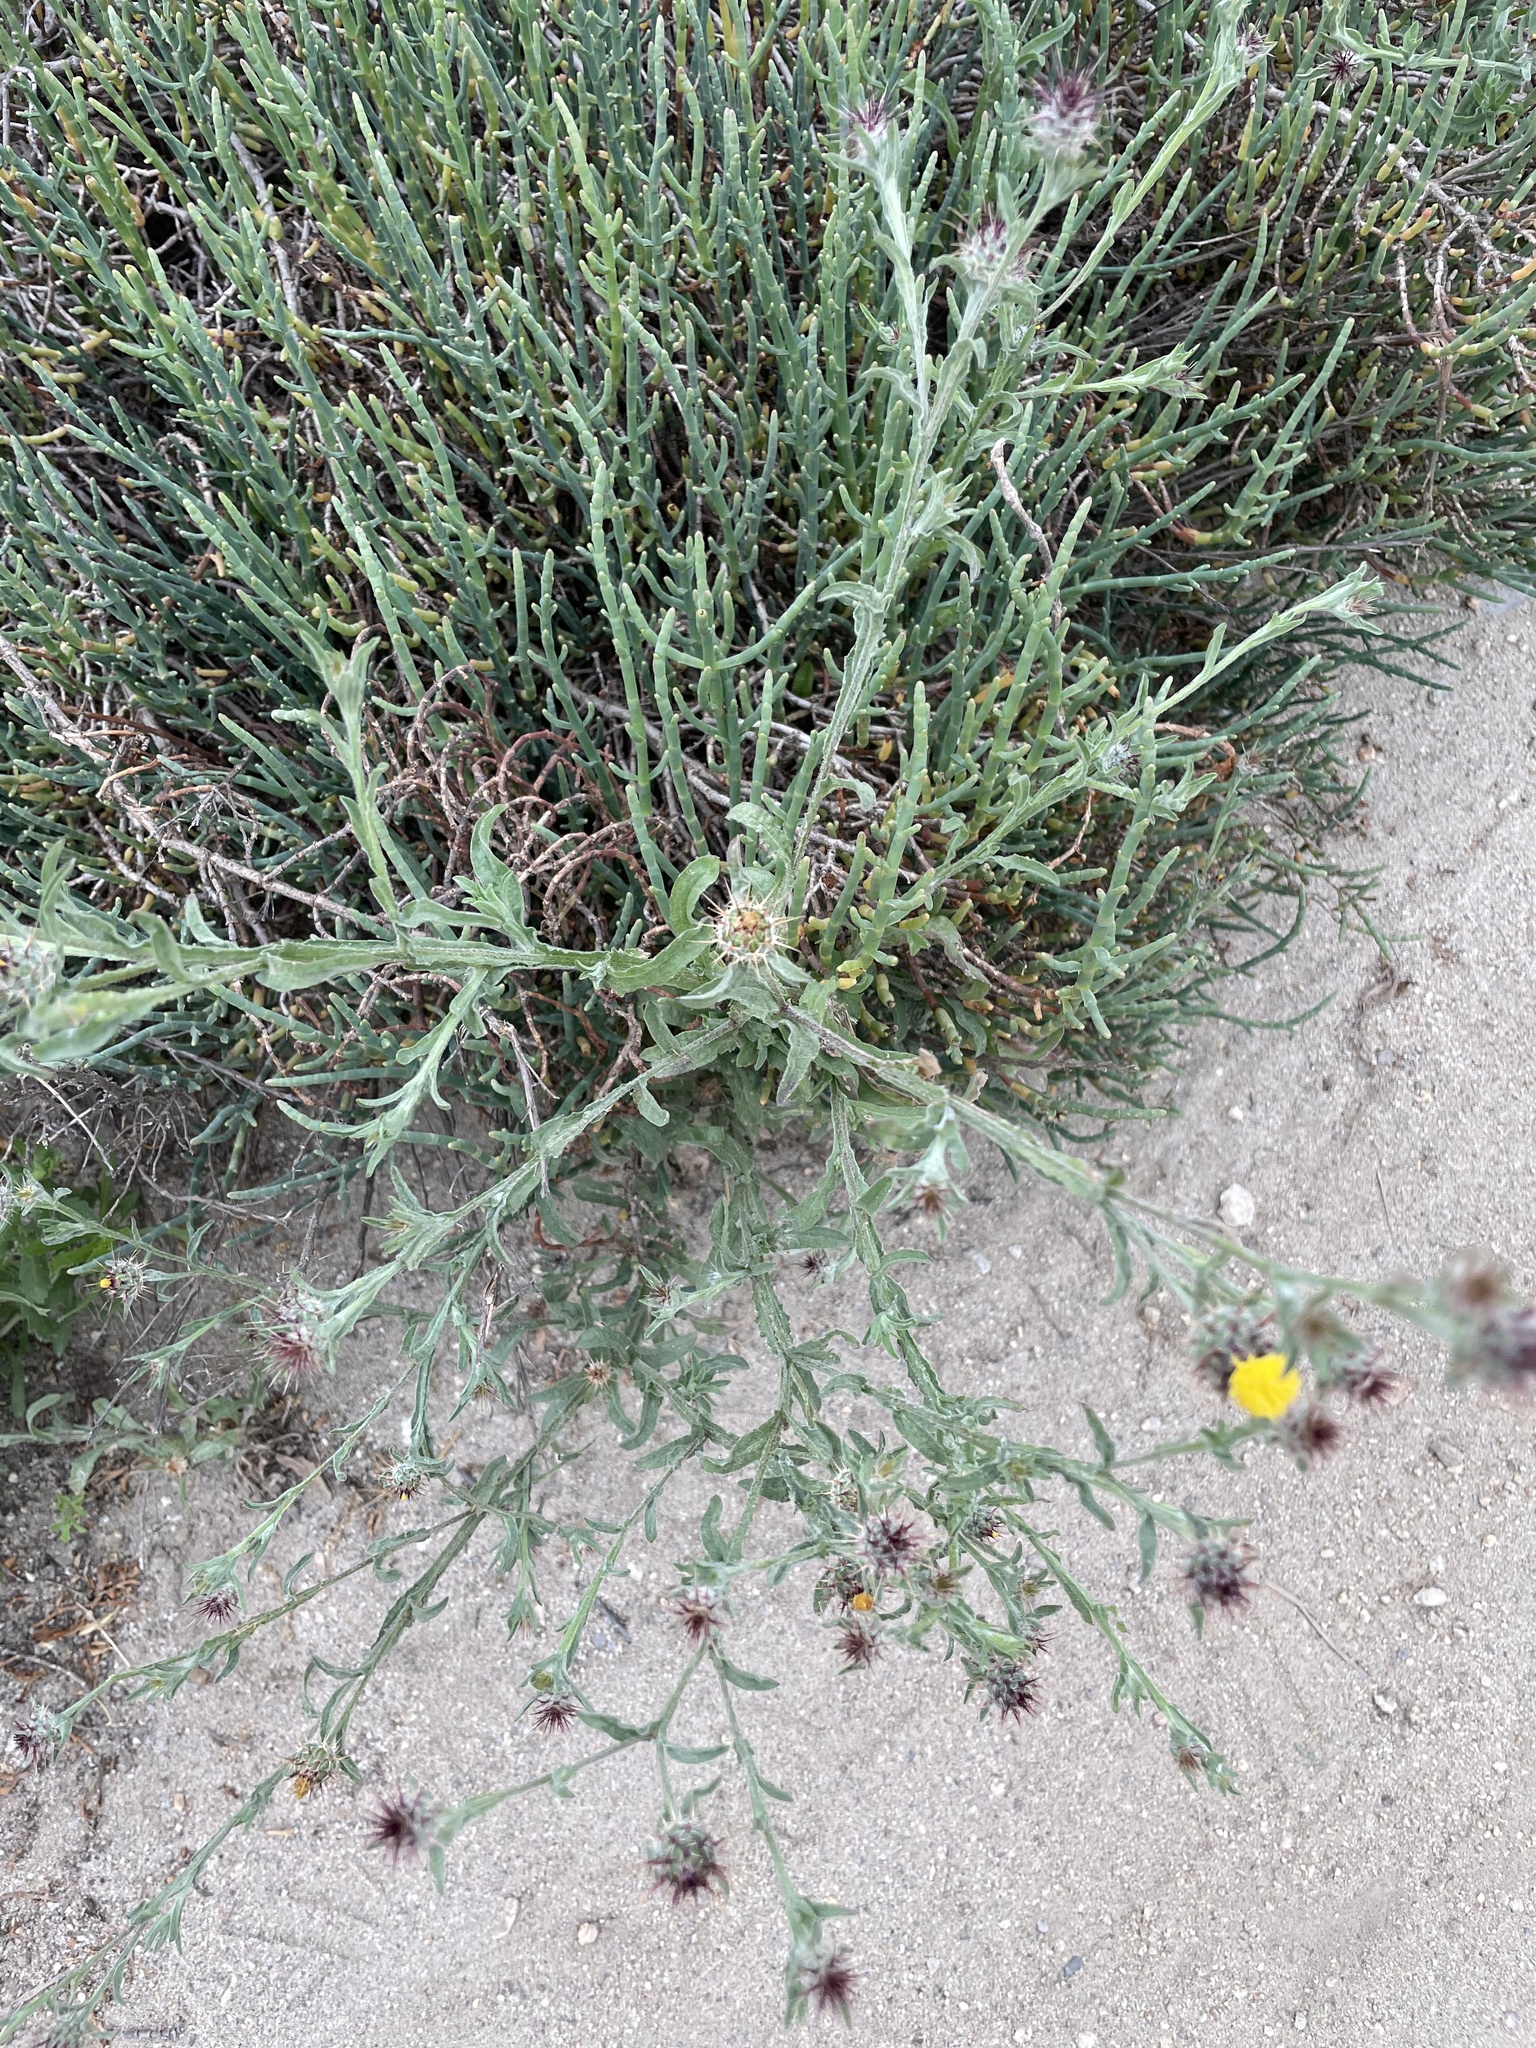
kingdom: Plantae
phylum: Tracheophyta
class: Magnoliopsida
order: Asterales
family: Asteraceae
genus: Centaurea
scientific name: Centaurea melitensis
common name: Maltese star-thistle
